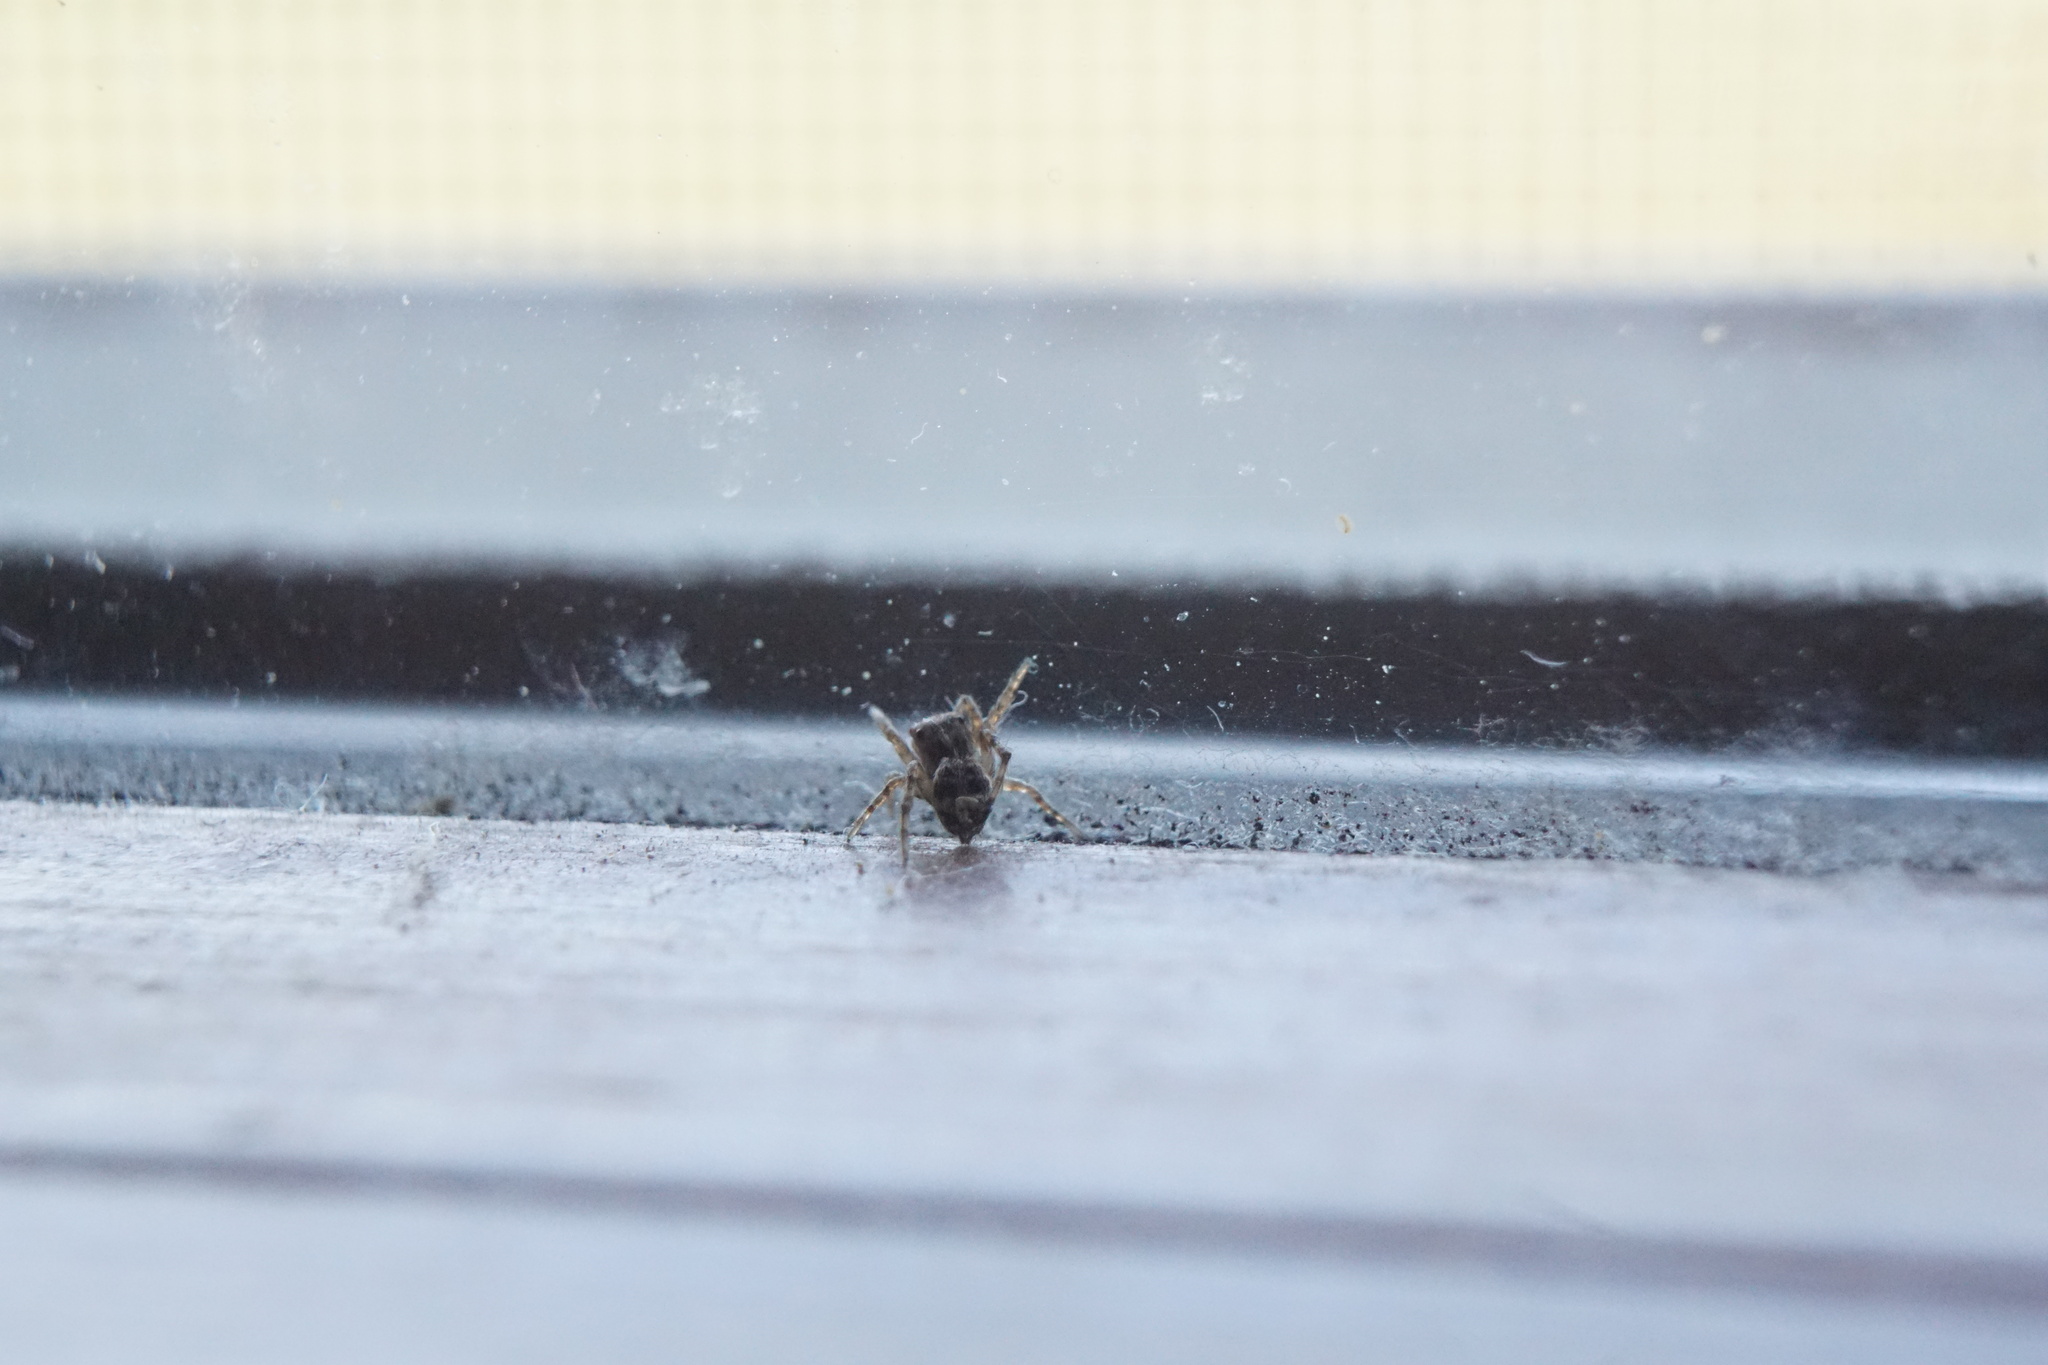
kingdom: Animalia
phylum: Arthropoda
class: Arachnida
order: Araneae
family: Salticidae
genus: Attulus
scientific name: Attulus fasciger
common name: Asiatic wall jumping spider
